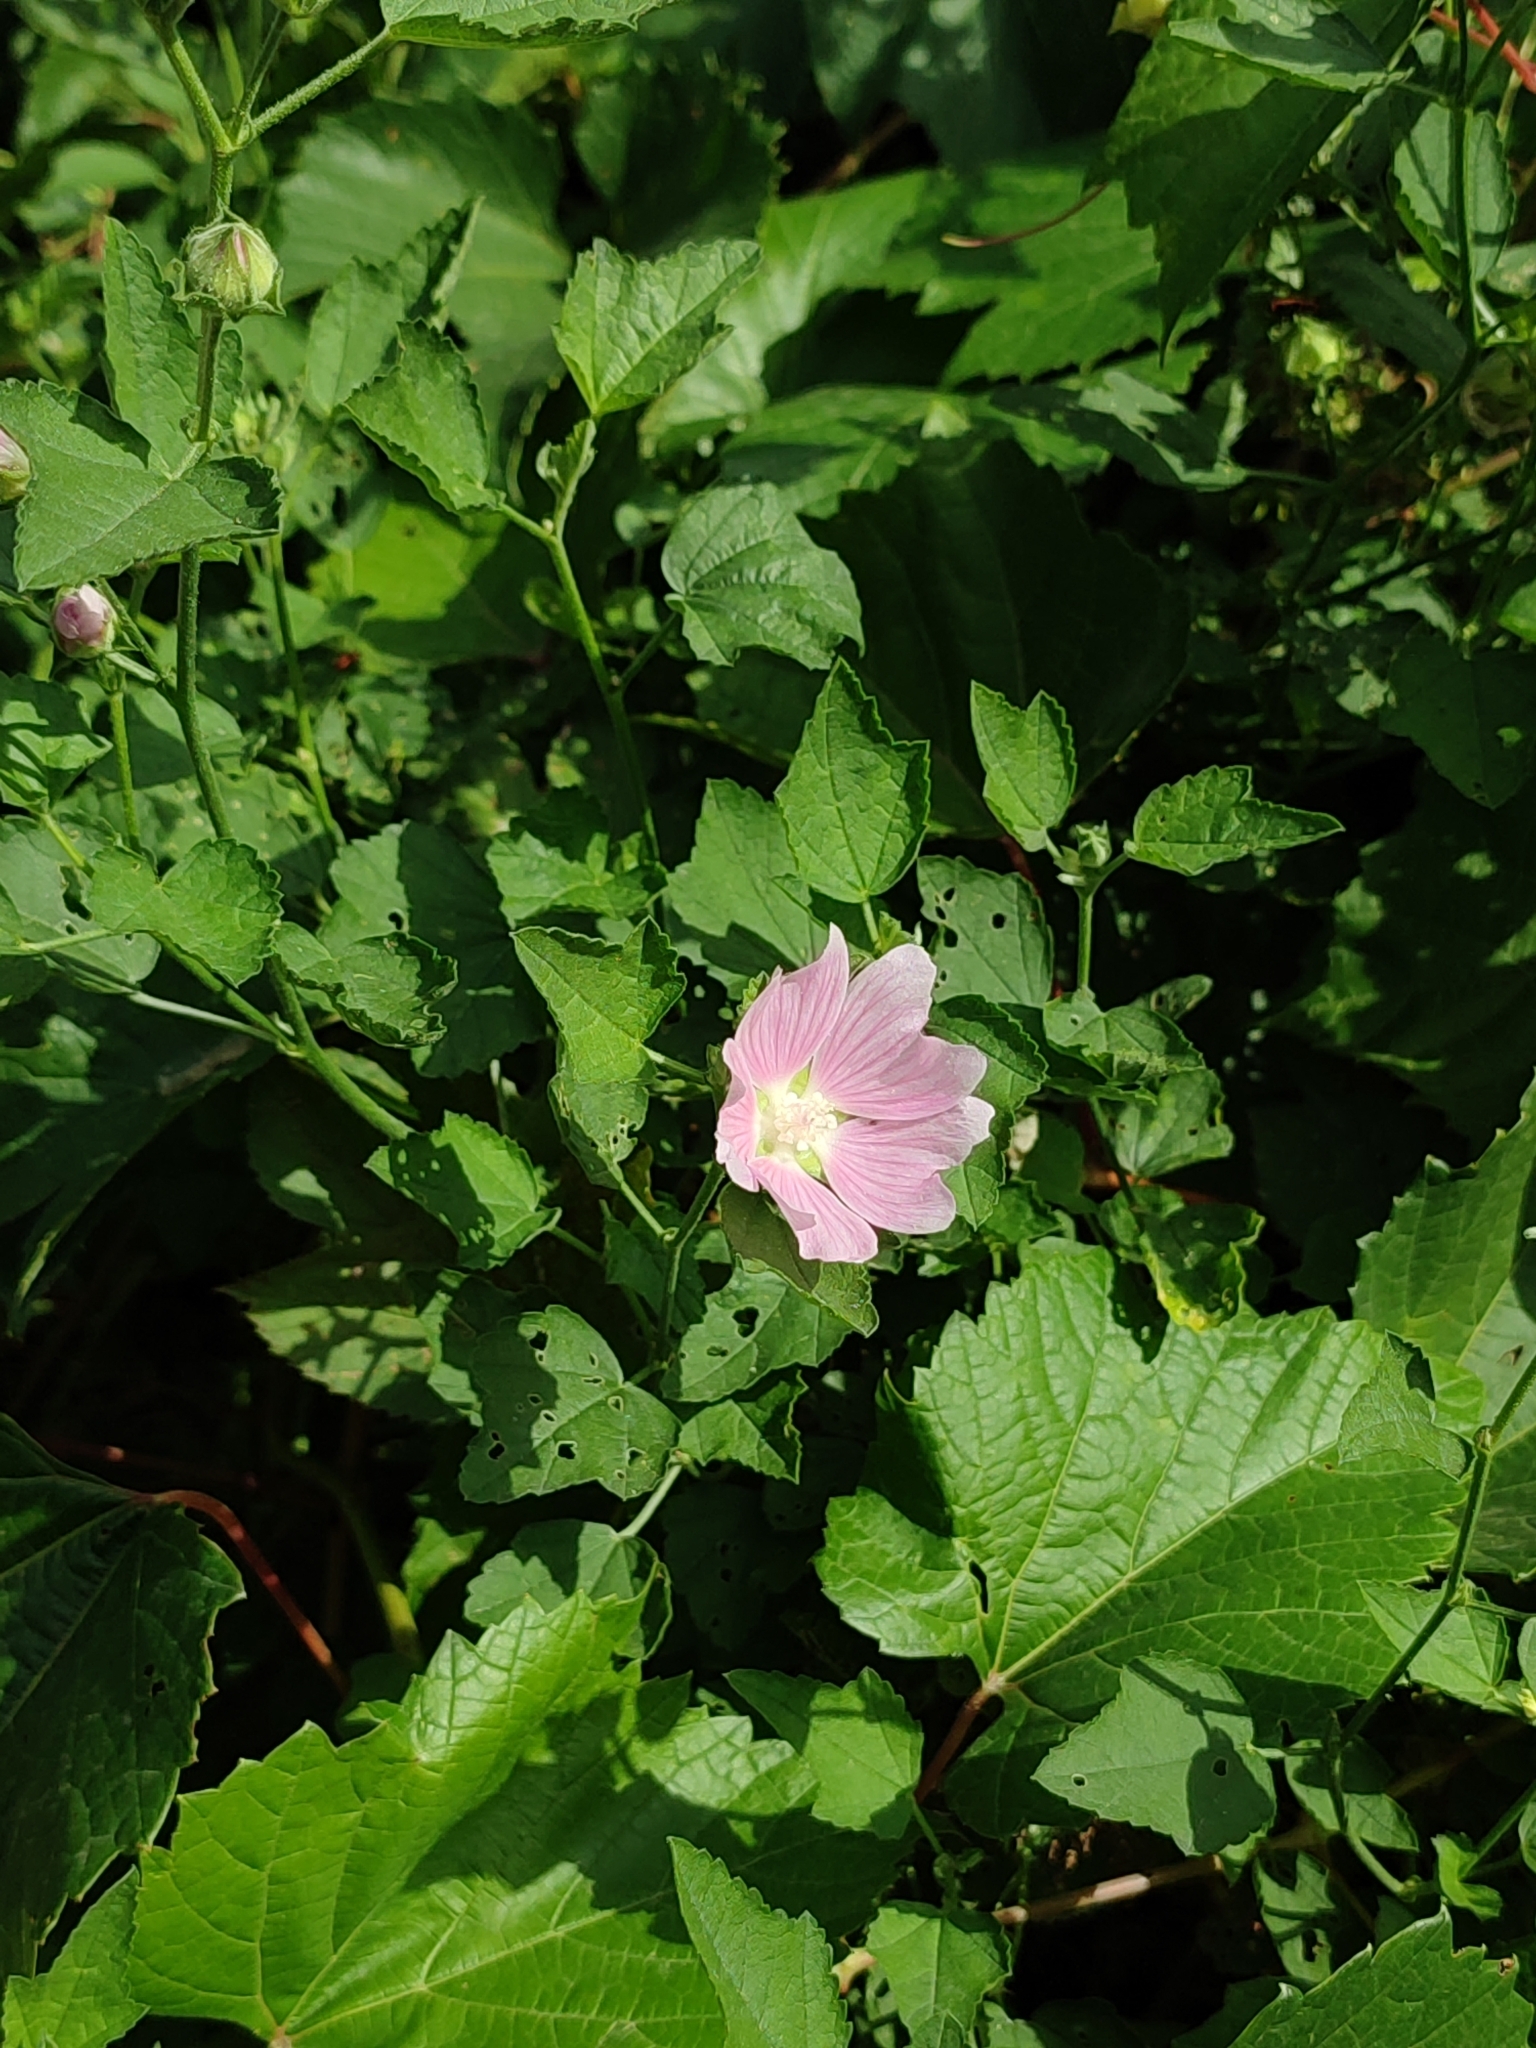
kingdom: Plantae
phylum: Tracheophyta
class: Magnoliopsida
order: Malvales
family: Malvaceae
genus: Malva
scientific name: Malva thuringiaca
